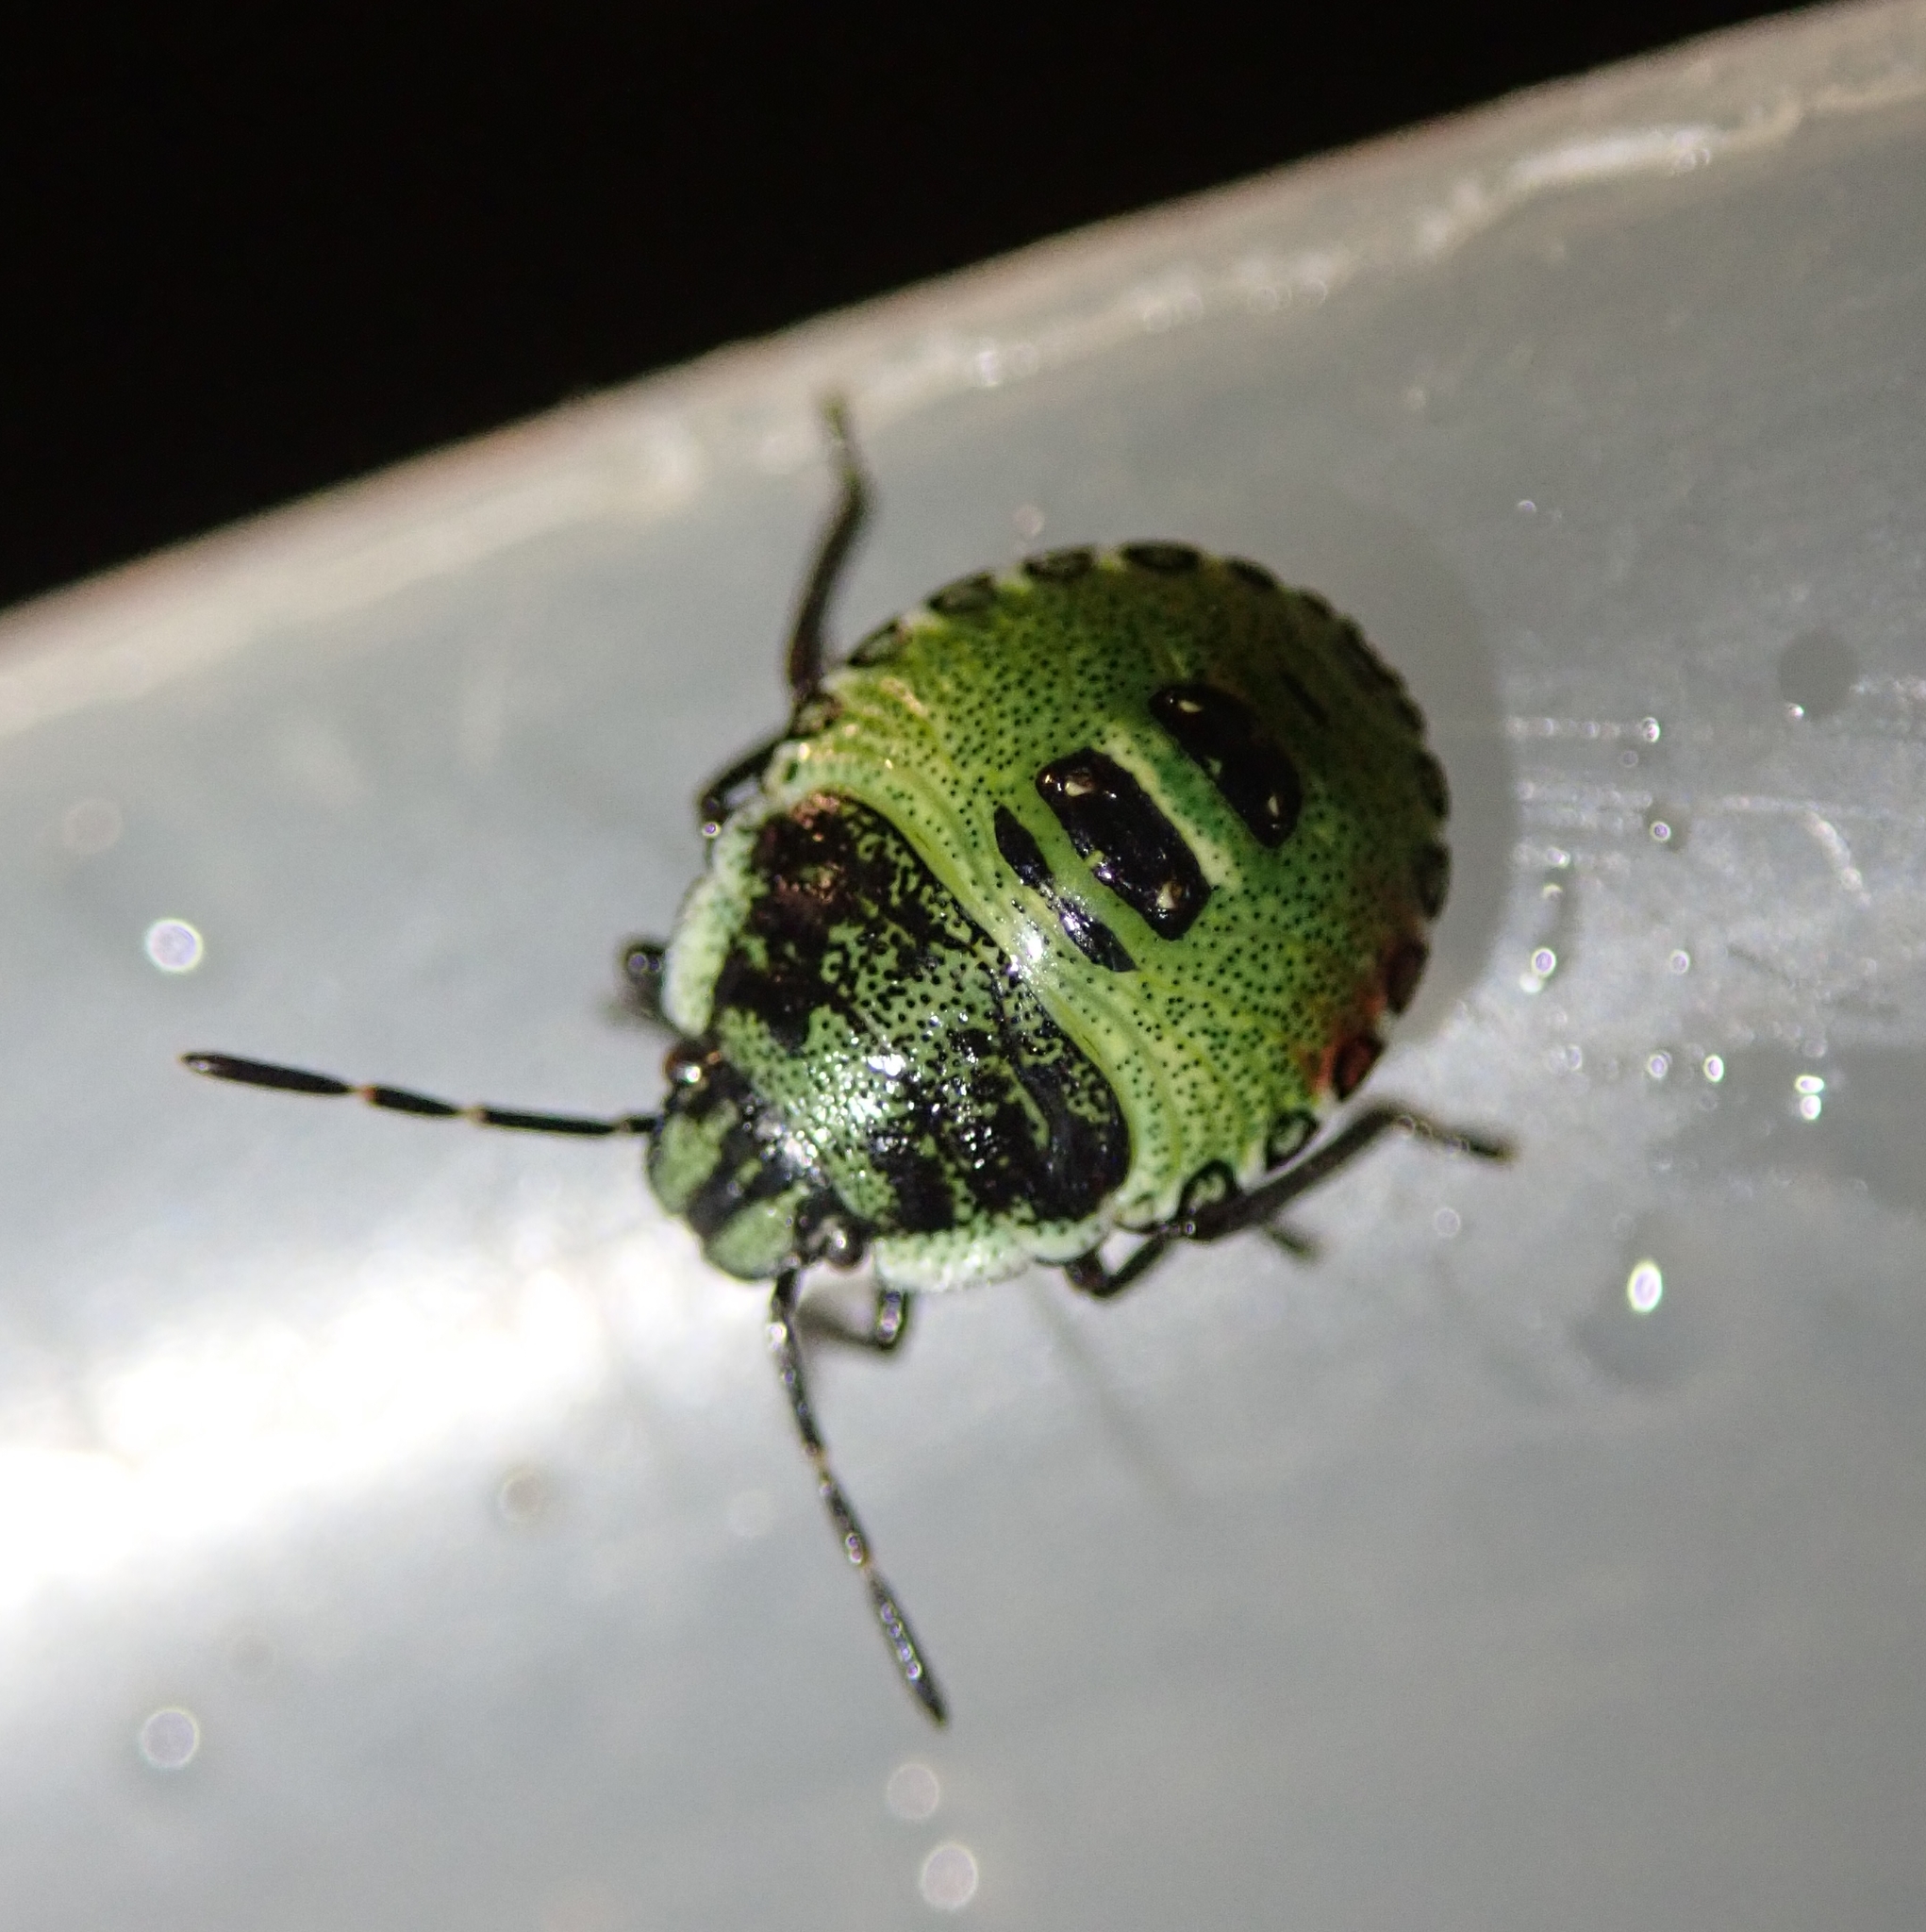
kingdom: Animalia
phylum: Arthropoda
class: Insecta
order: Hemiptera
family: Pentatomidae
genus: Palomena
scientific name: Palomena prasina
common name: Green shieldbug
